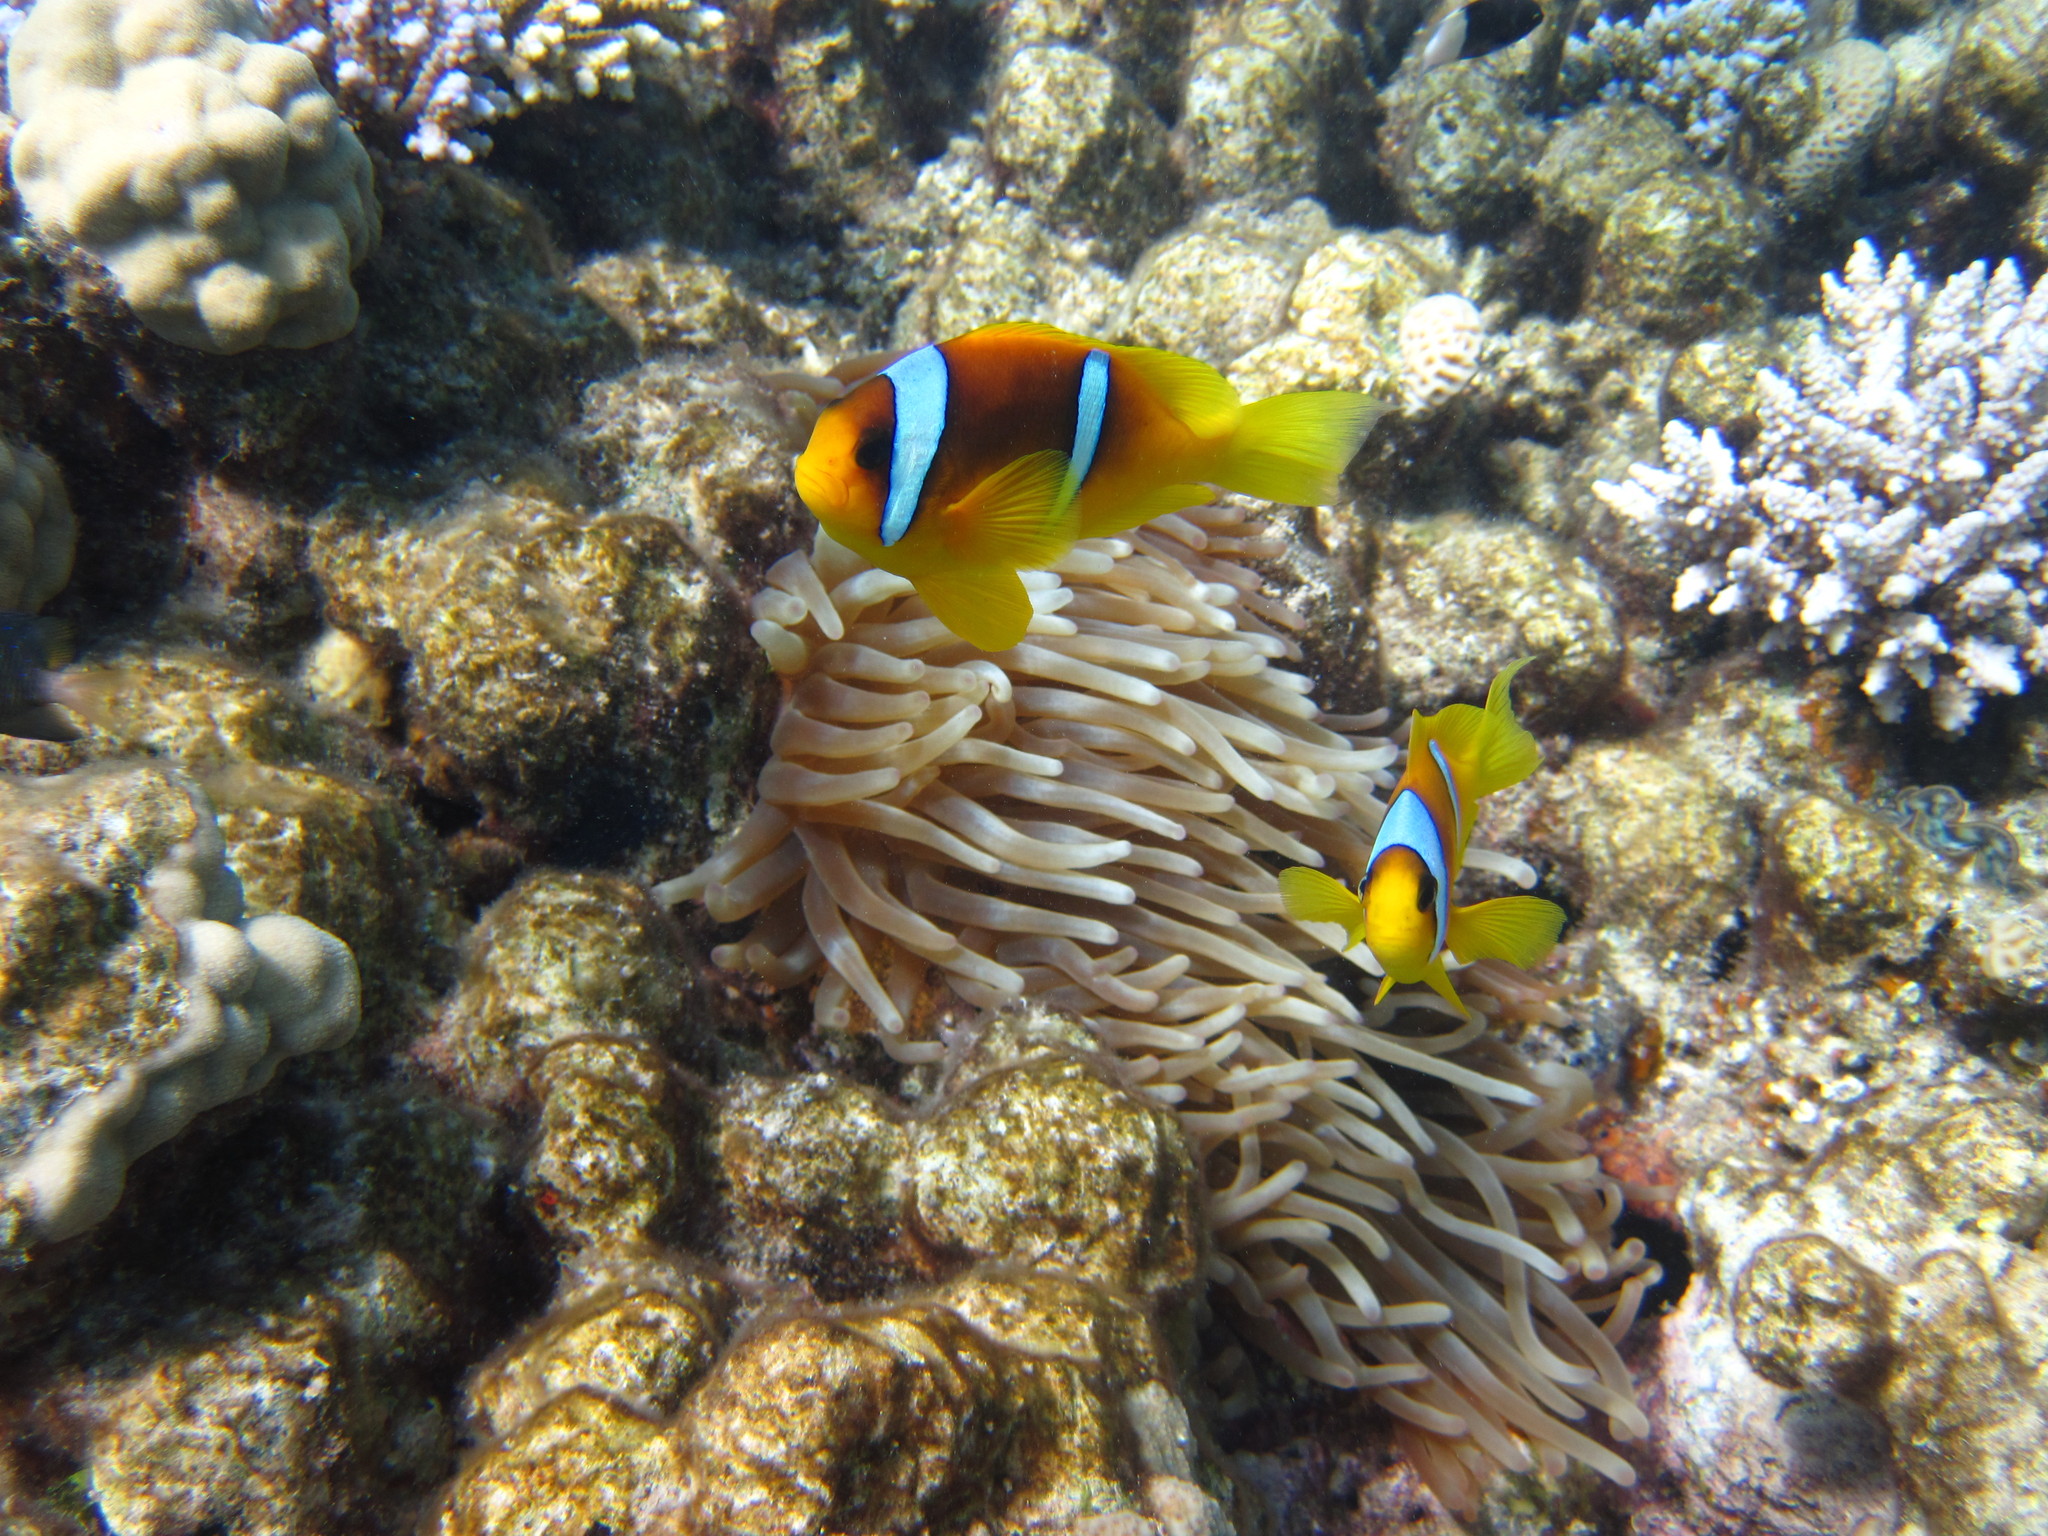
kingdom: Animalia
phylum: Chordata
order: Perciformes
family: Pomacentridae
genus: Amphiprion
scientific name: Amphiprion bicinctus
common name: Two-banded anemonefish
